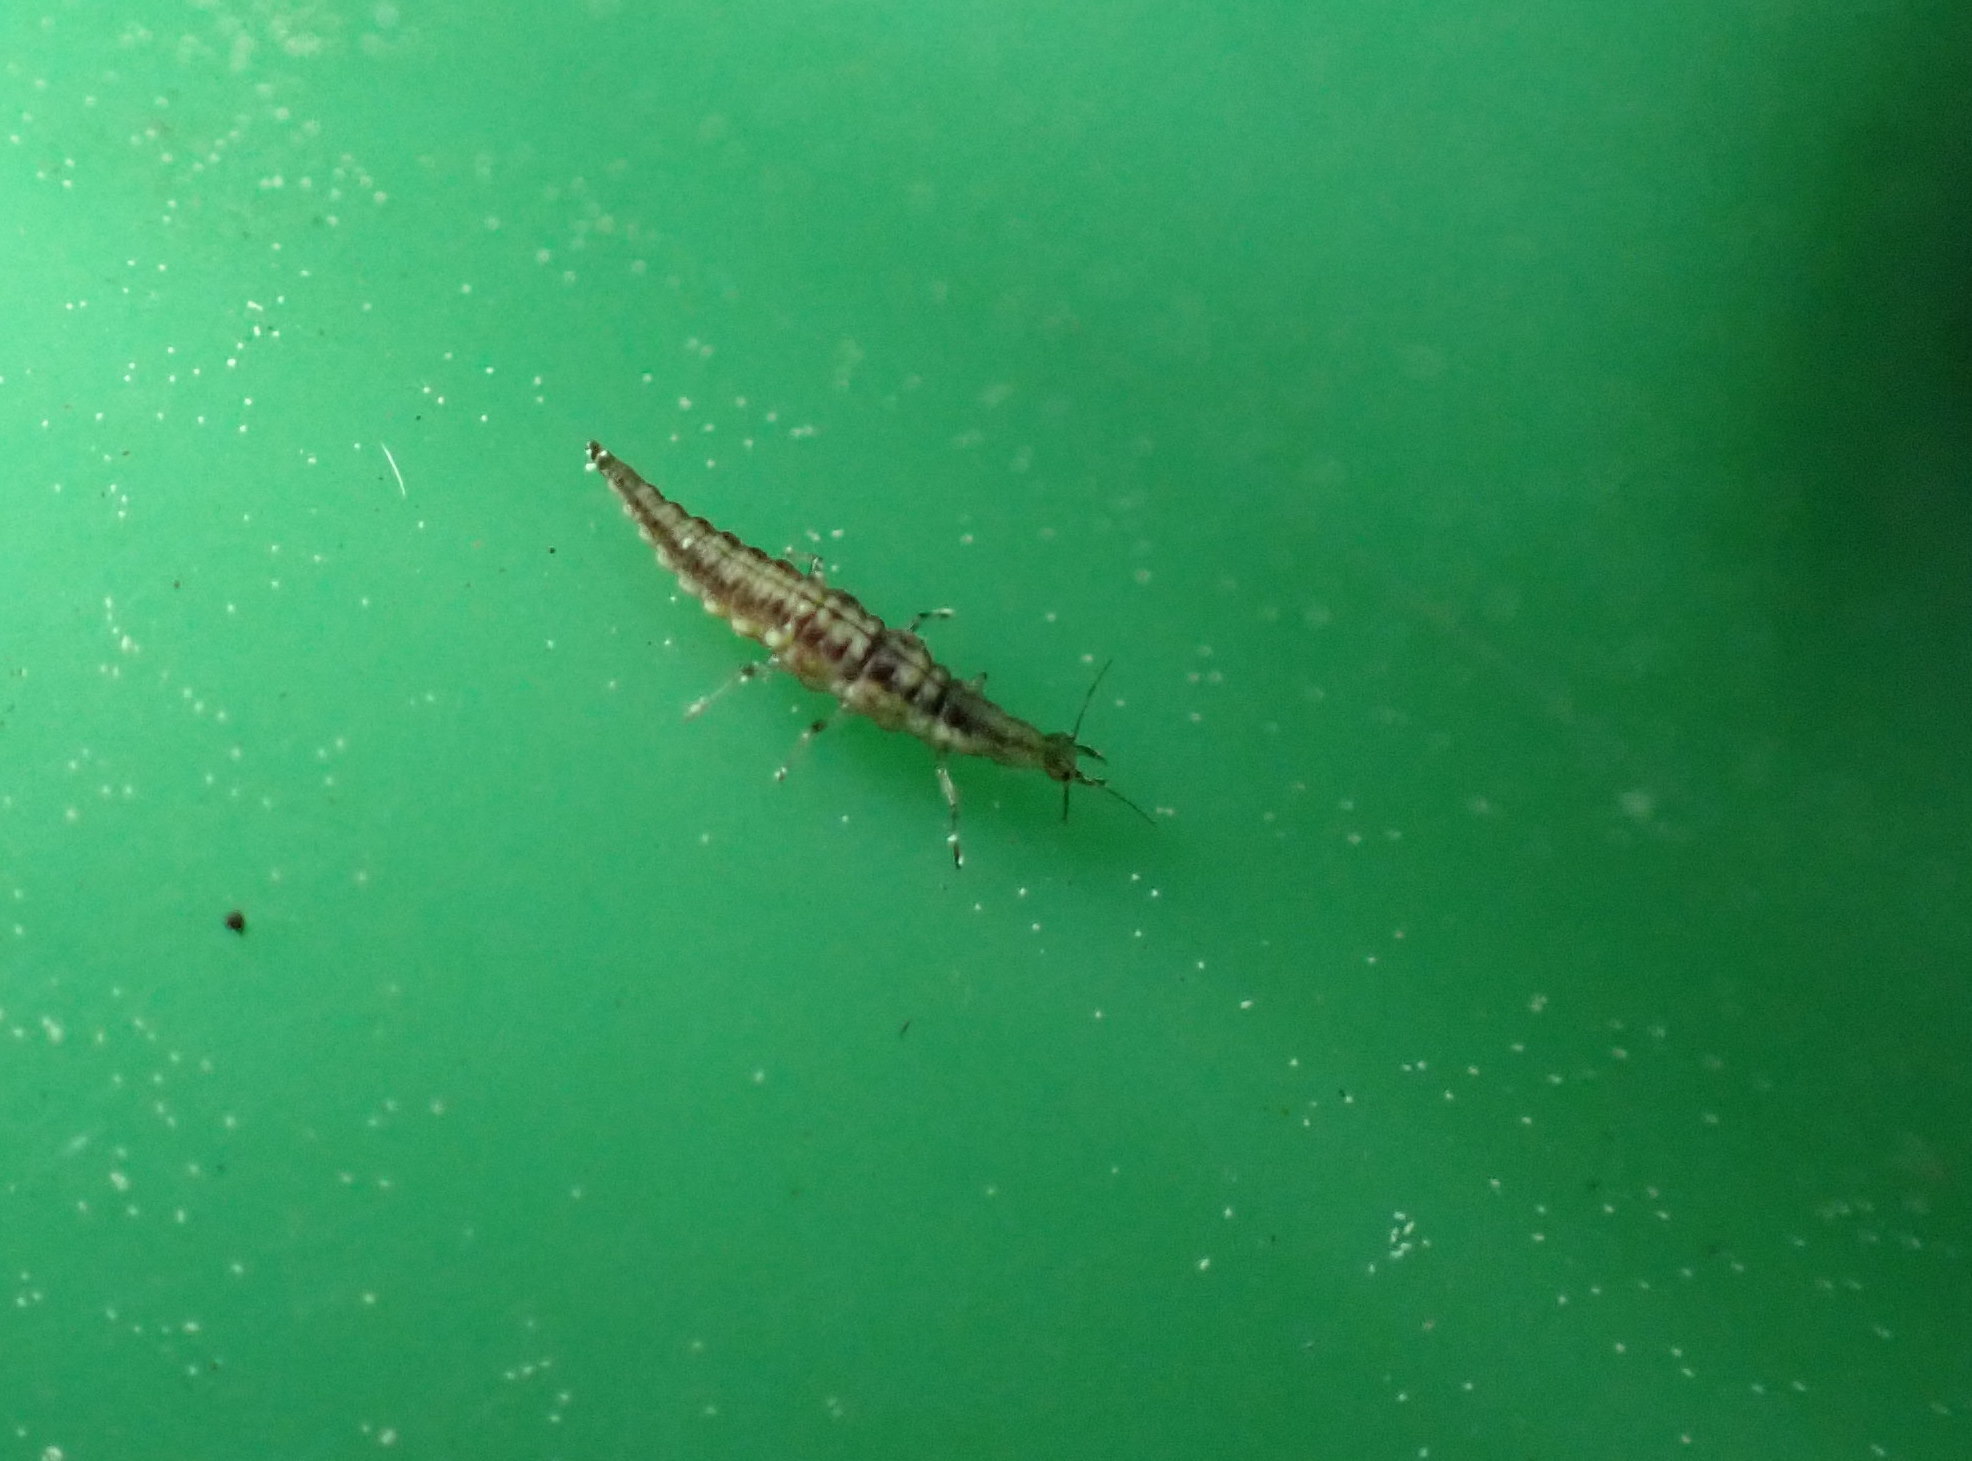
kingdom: Animalia
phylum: Arthropoda
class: Insecta
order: Neuroptera
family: Hemerobiidae
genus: Micromus
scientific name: Micromus tasmaniae
